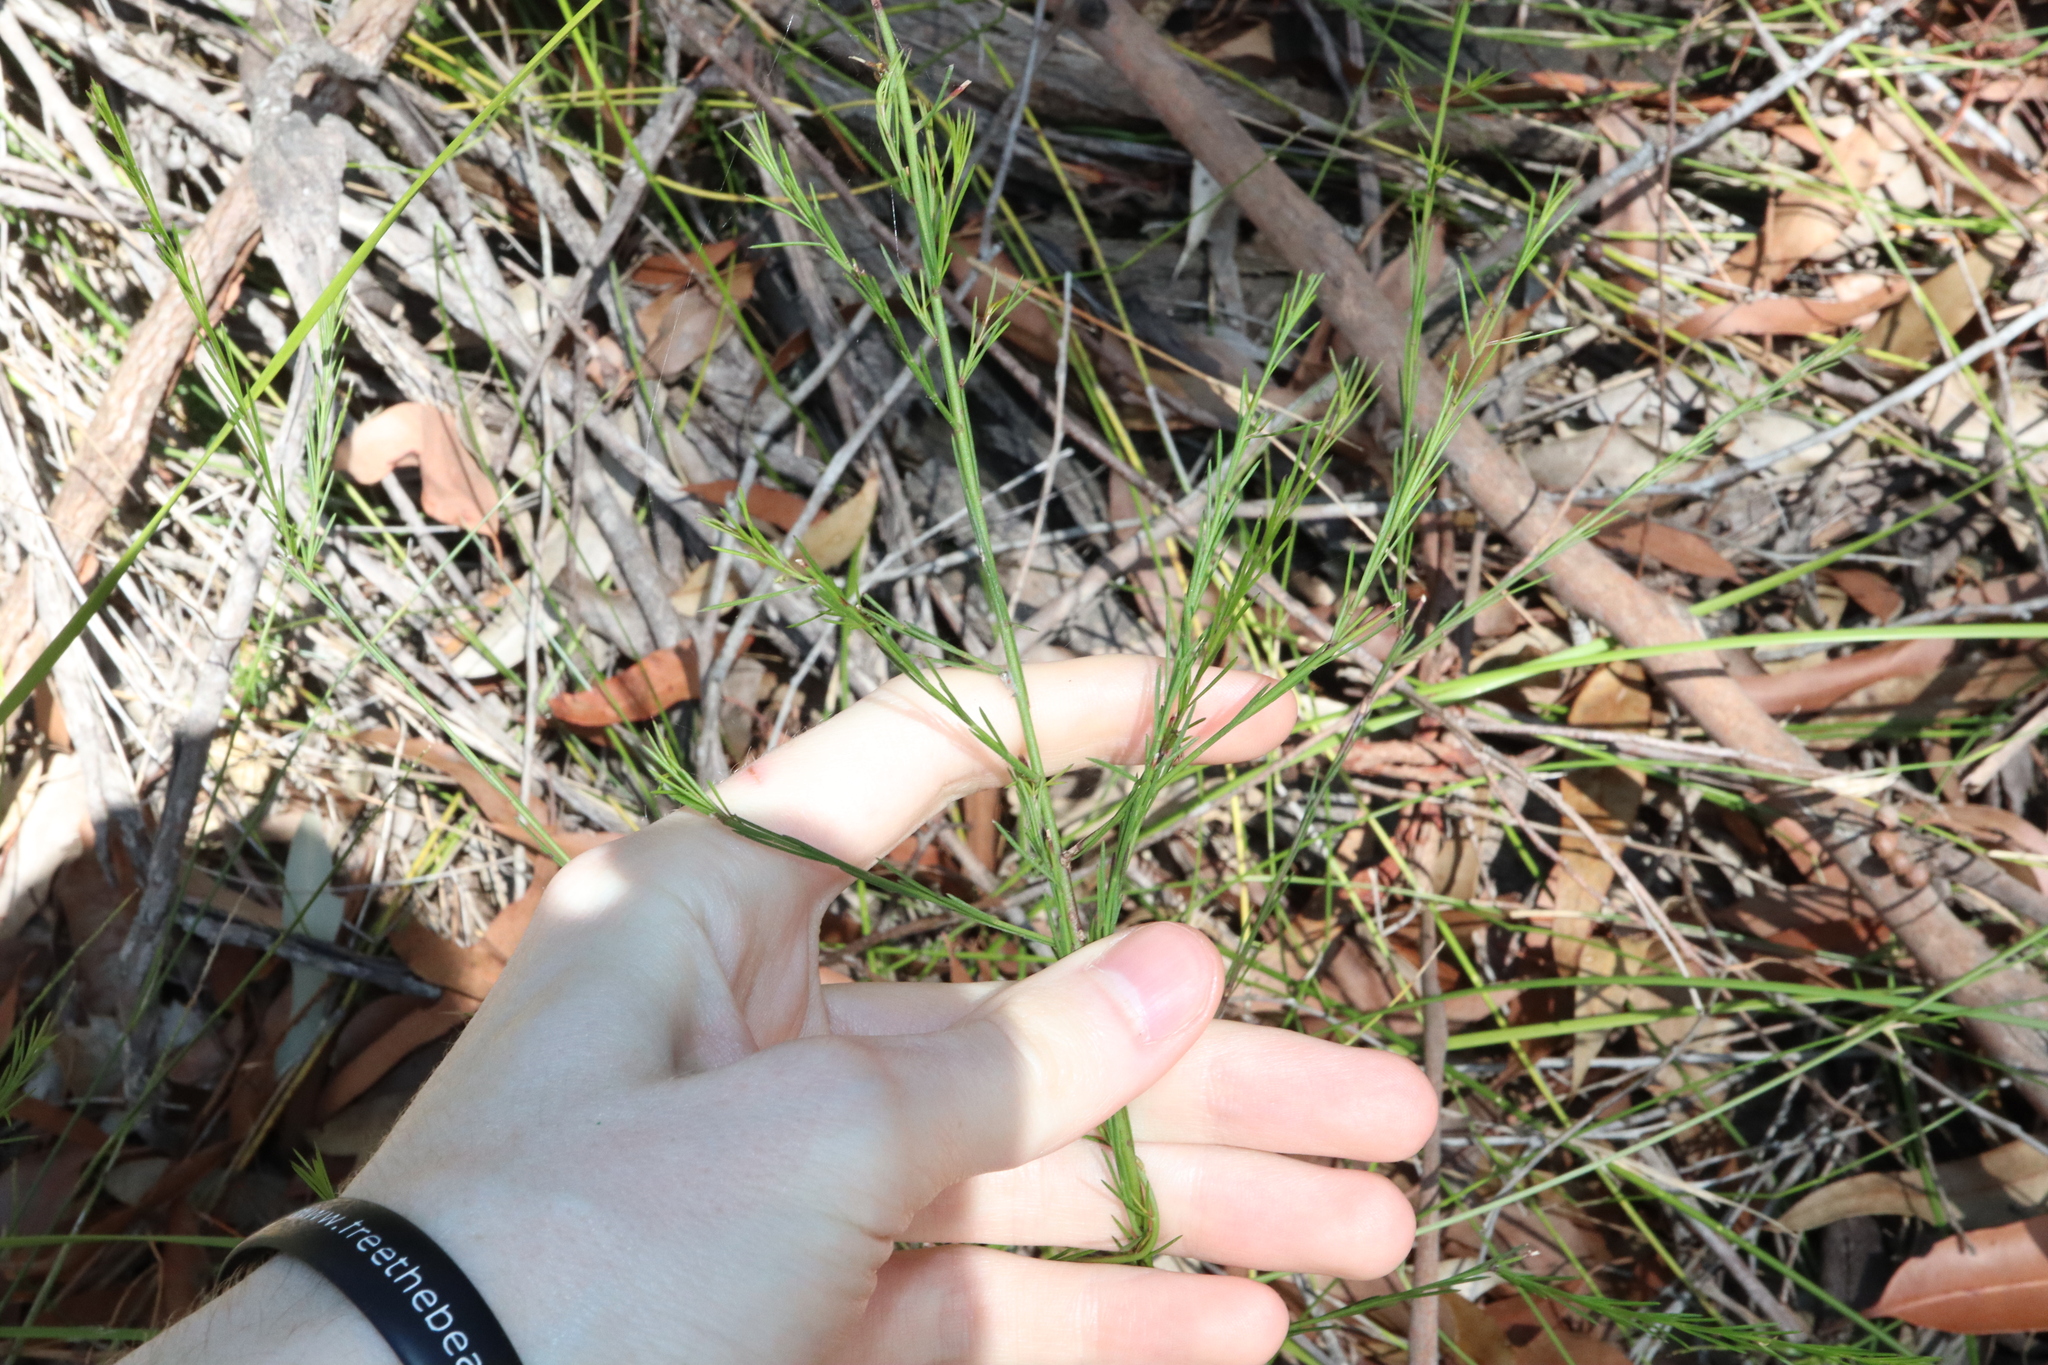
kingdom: Plantae
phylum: Tracheophyta
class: Magnoliopsida
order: Apiales
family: Apiaceae
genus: Platysace
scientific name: Platysace linearifolia
